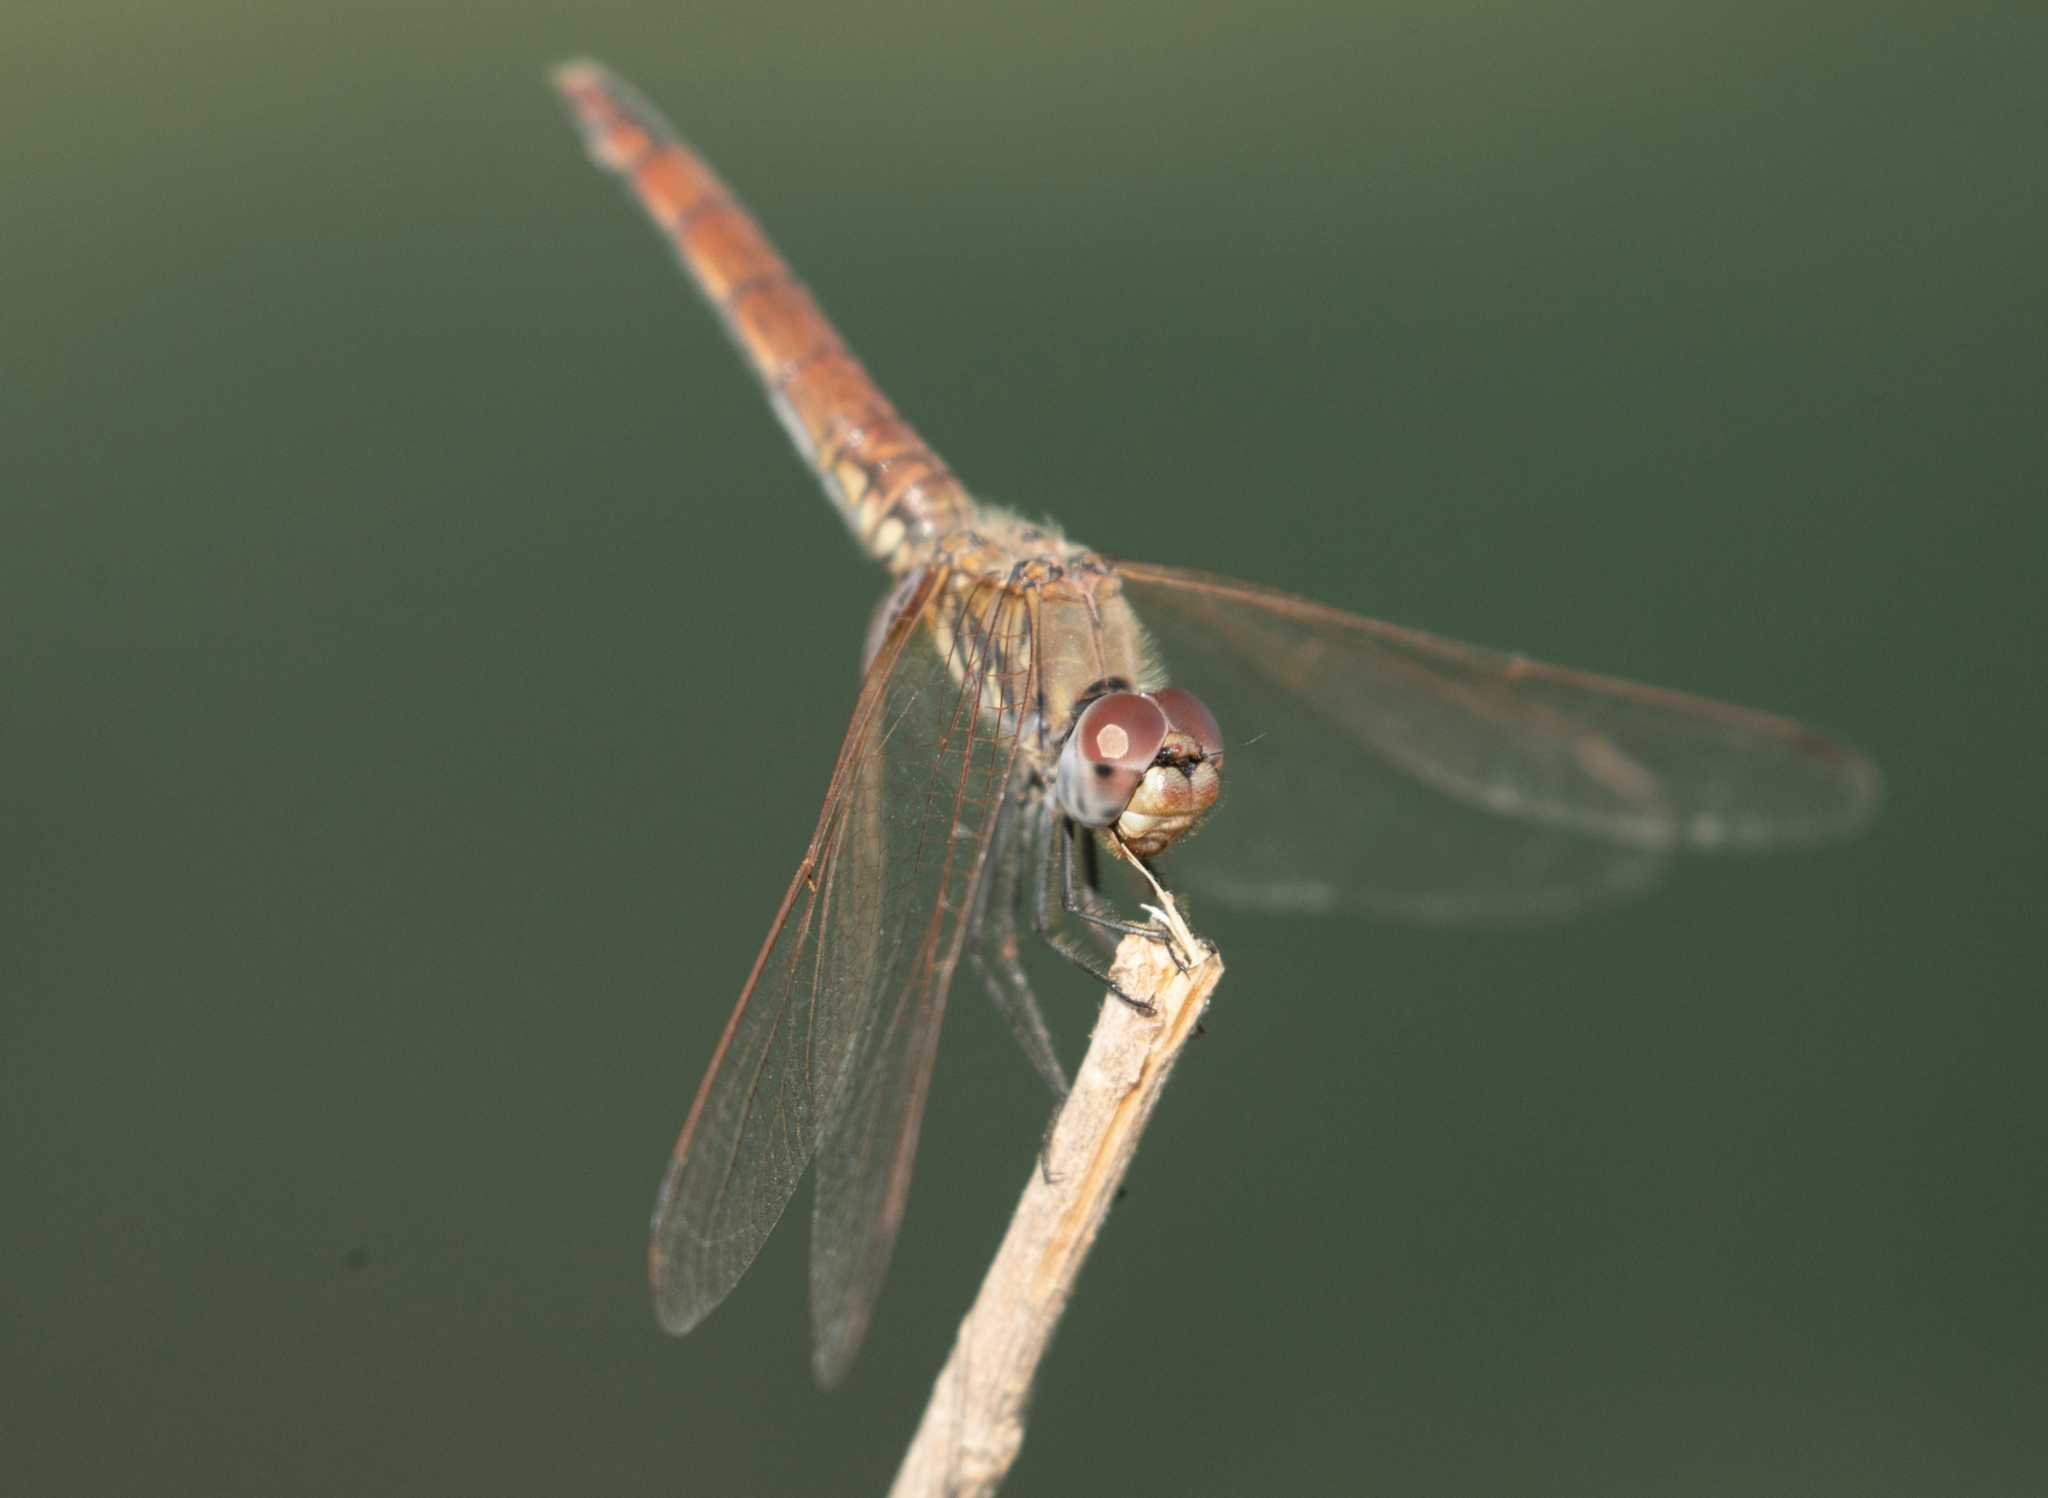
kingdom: Animalia
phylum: Arthropoda
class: Insecta
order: Odonata
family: Libellulidae
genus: Trithemis
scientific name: Trithemis annulata
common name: Violet dropwing
